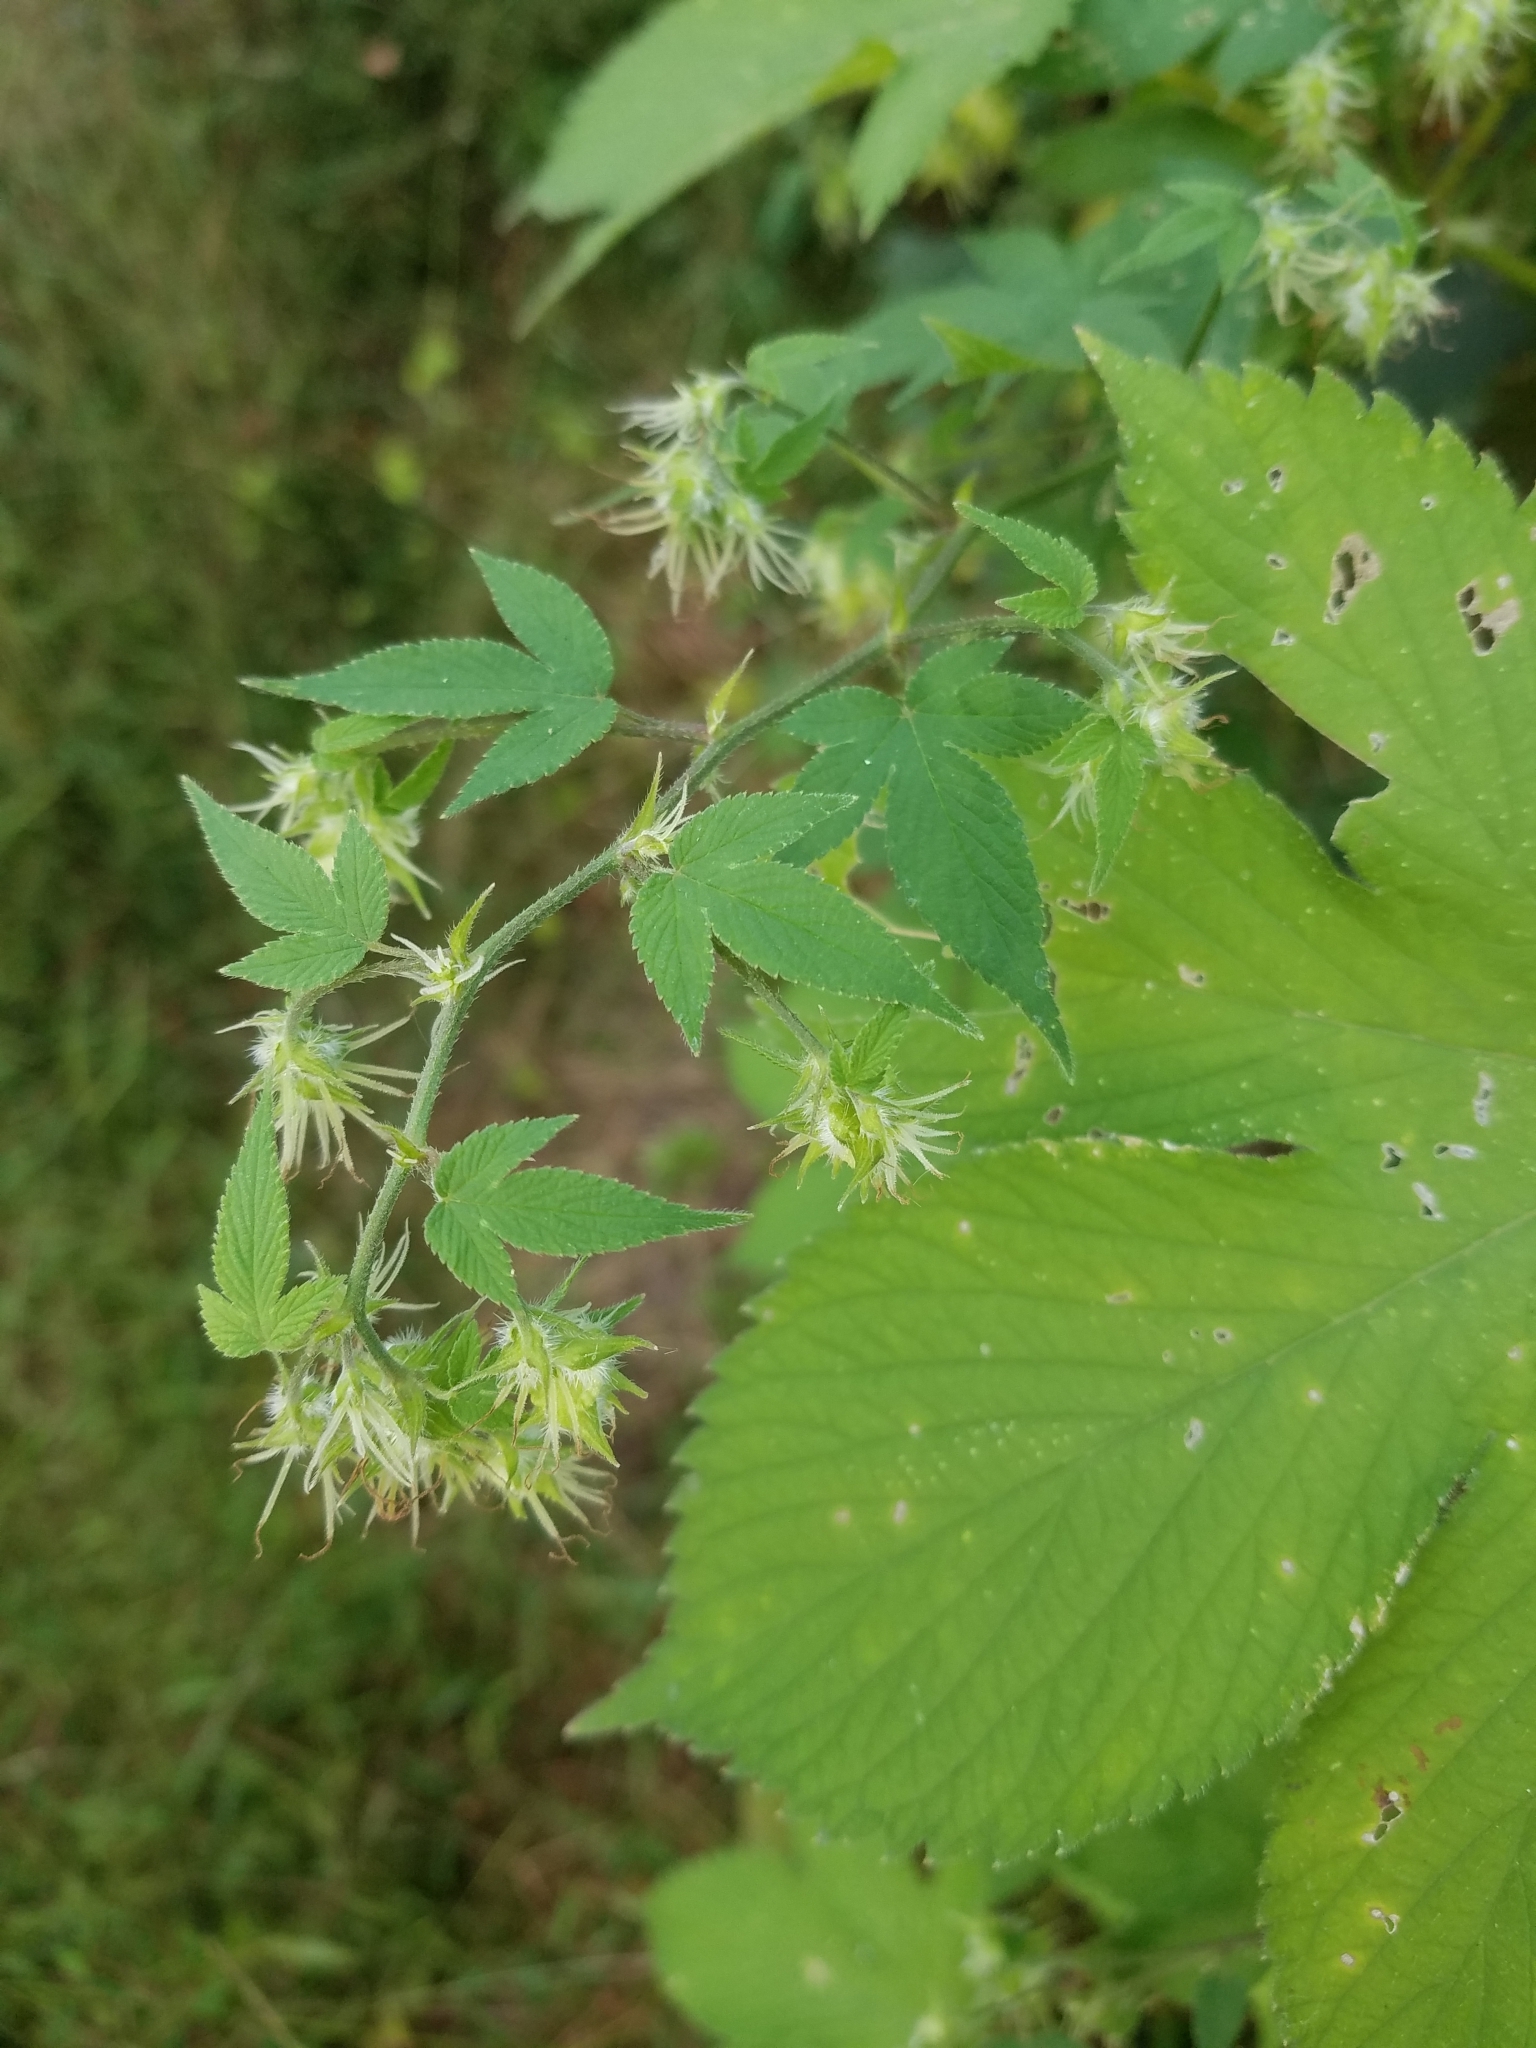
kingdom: Plantae
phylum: Tracheophyta
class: Magnoliopsida
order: Rosales
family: Cannabaceae
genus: Humulus
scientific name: Humulus scandens
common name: Japanese hop
